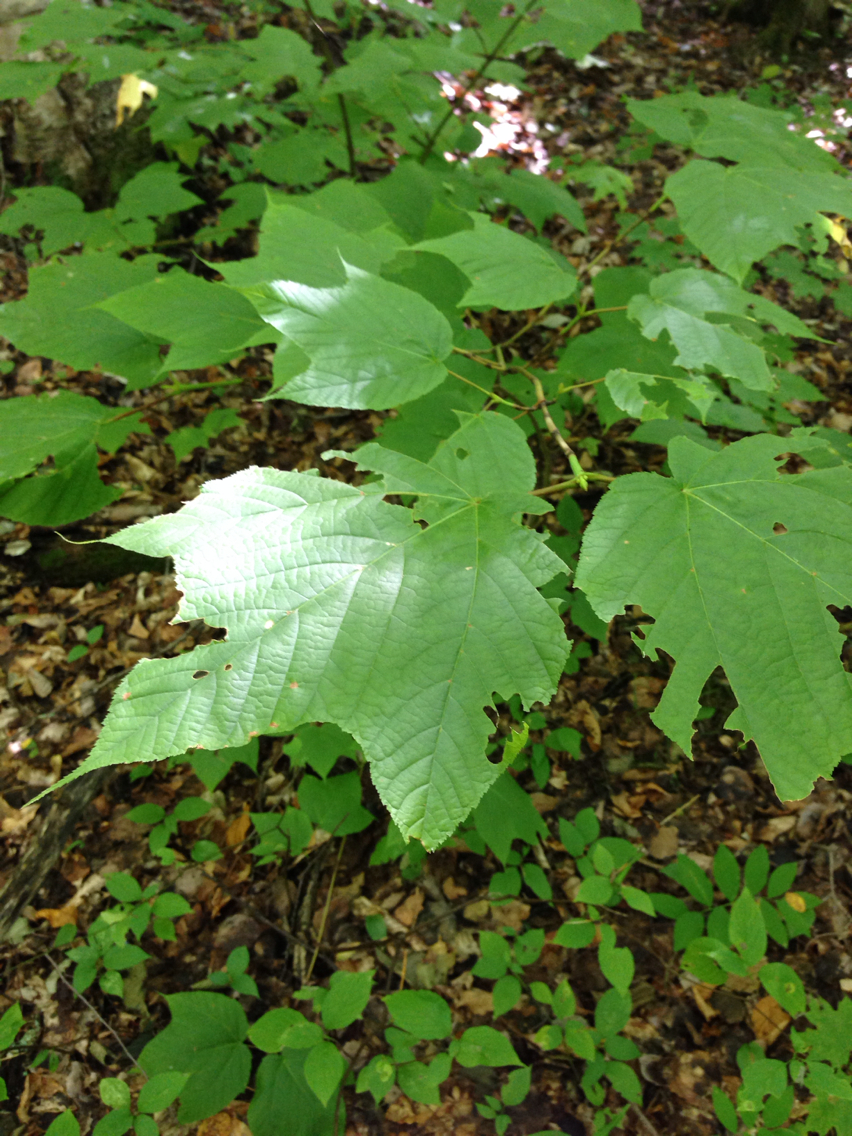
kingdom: Plantae
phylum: Tracheophyta
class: Magnoliopsida
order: Sapindales
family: Sapindaceae
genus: Acer
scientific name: Acer pensylvanicum
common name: Moosewood
